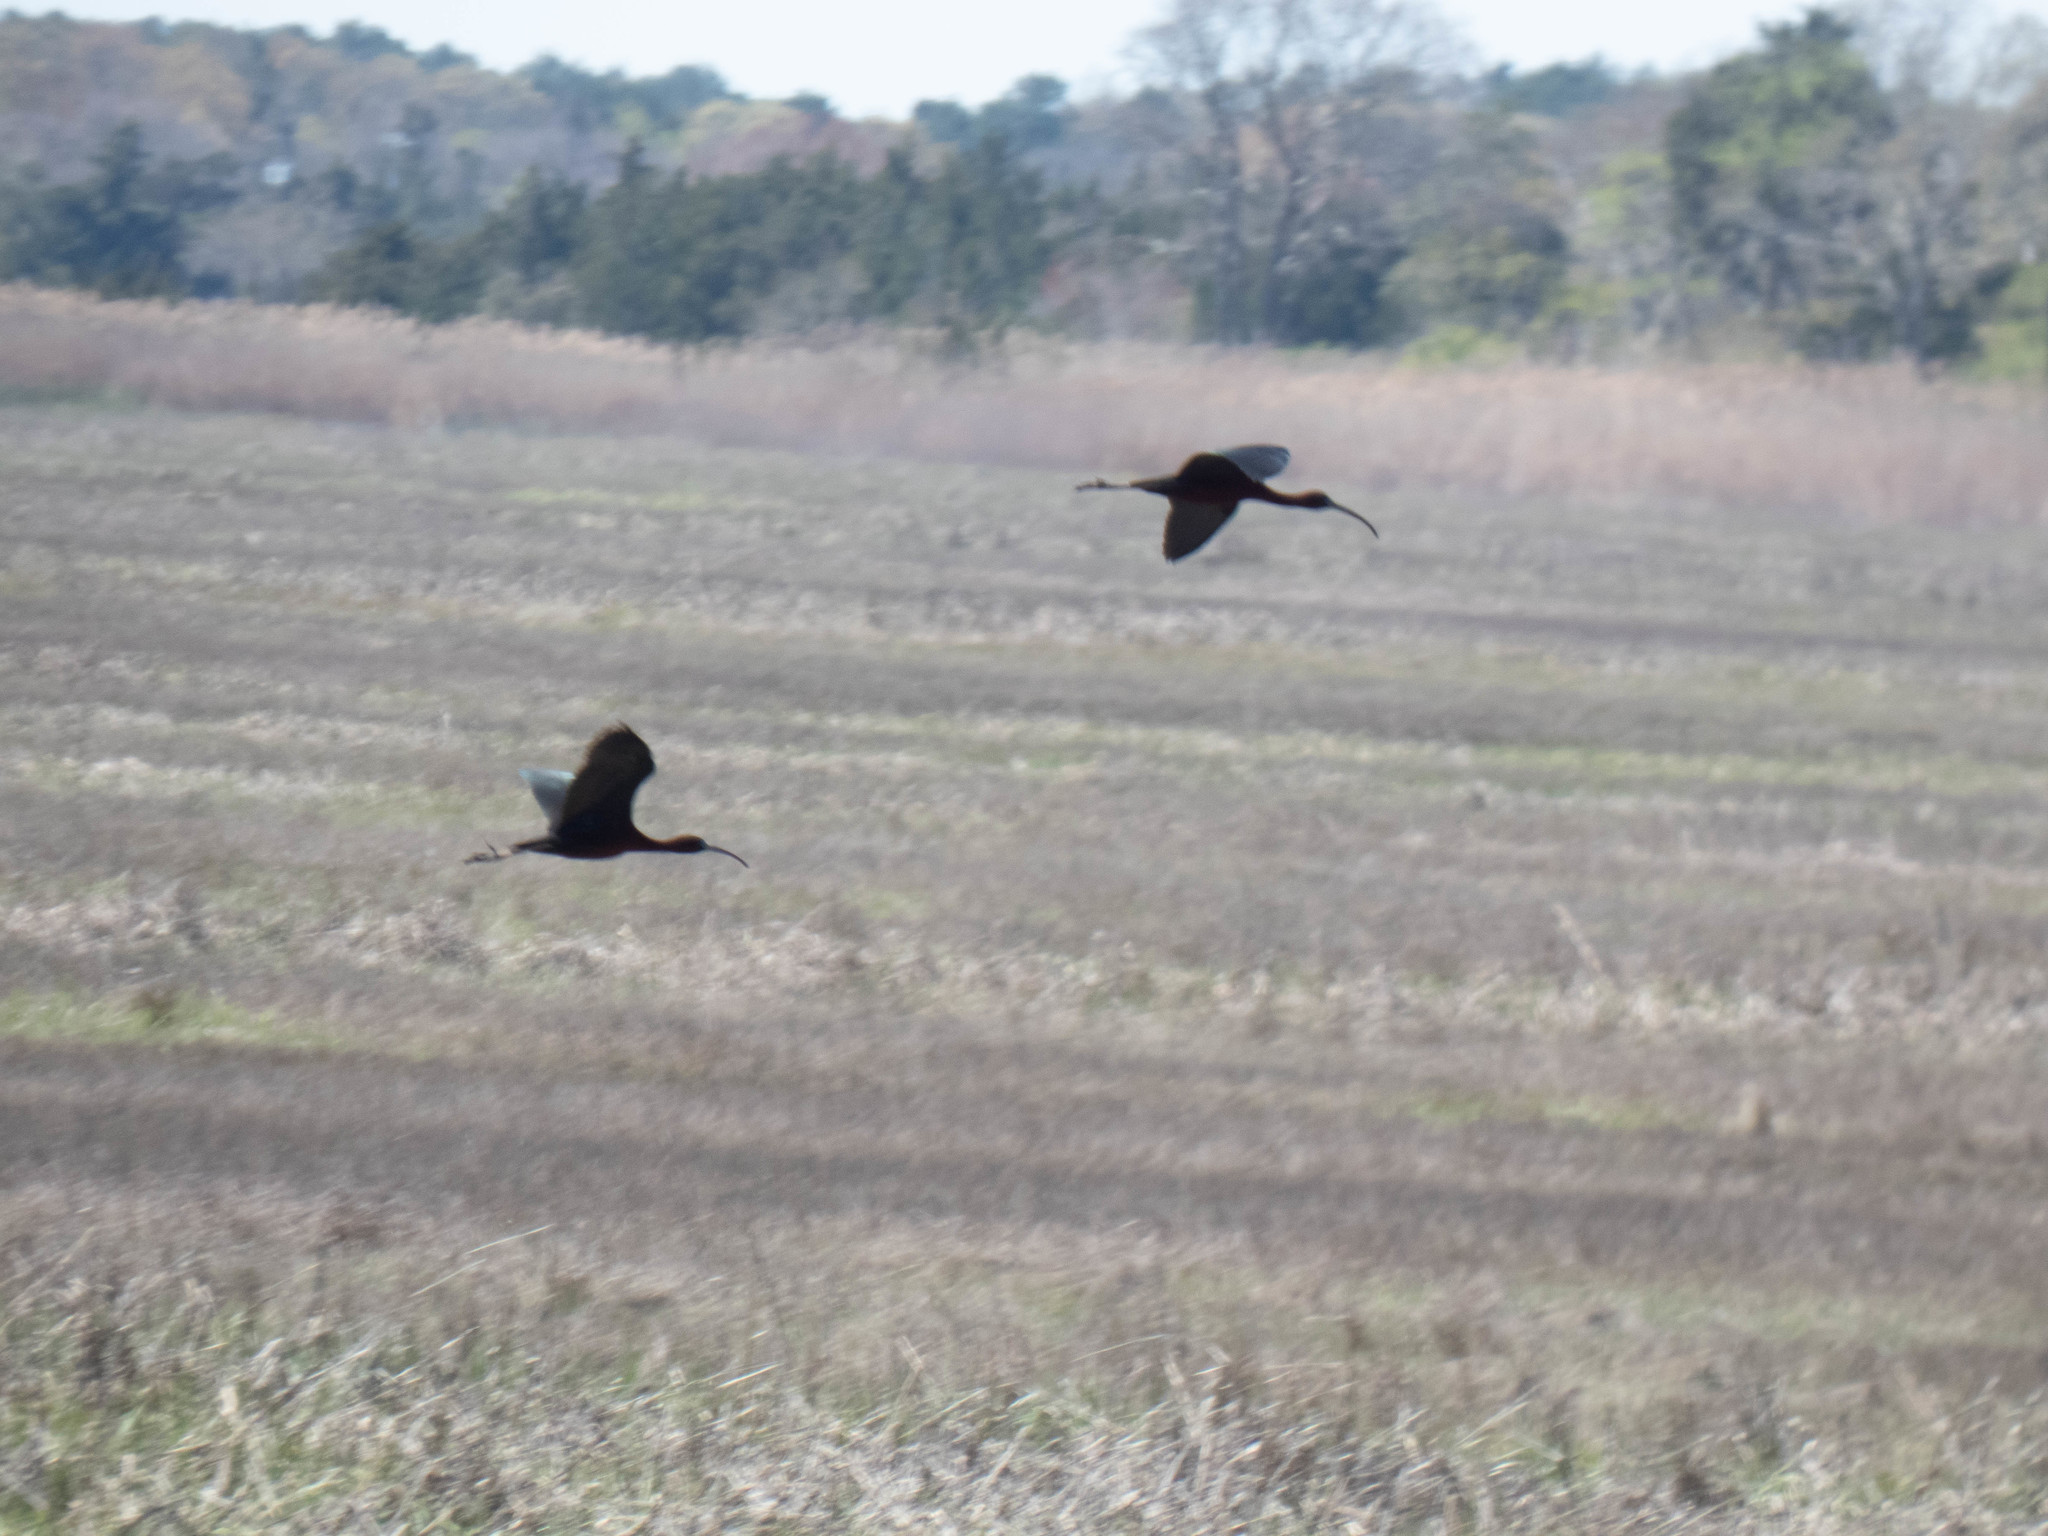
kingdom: Animalia
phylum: Chordata
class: Aves
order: Pelecaniformes
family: Threskiornithidae
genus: Plegadis
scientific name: Plegadis falcinellus
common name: Glossy ibis
